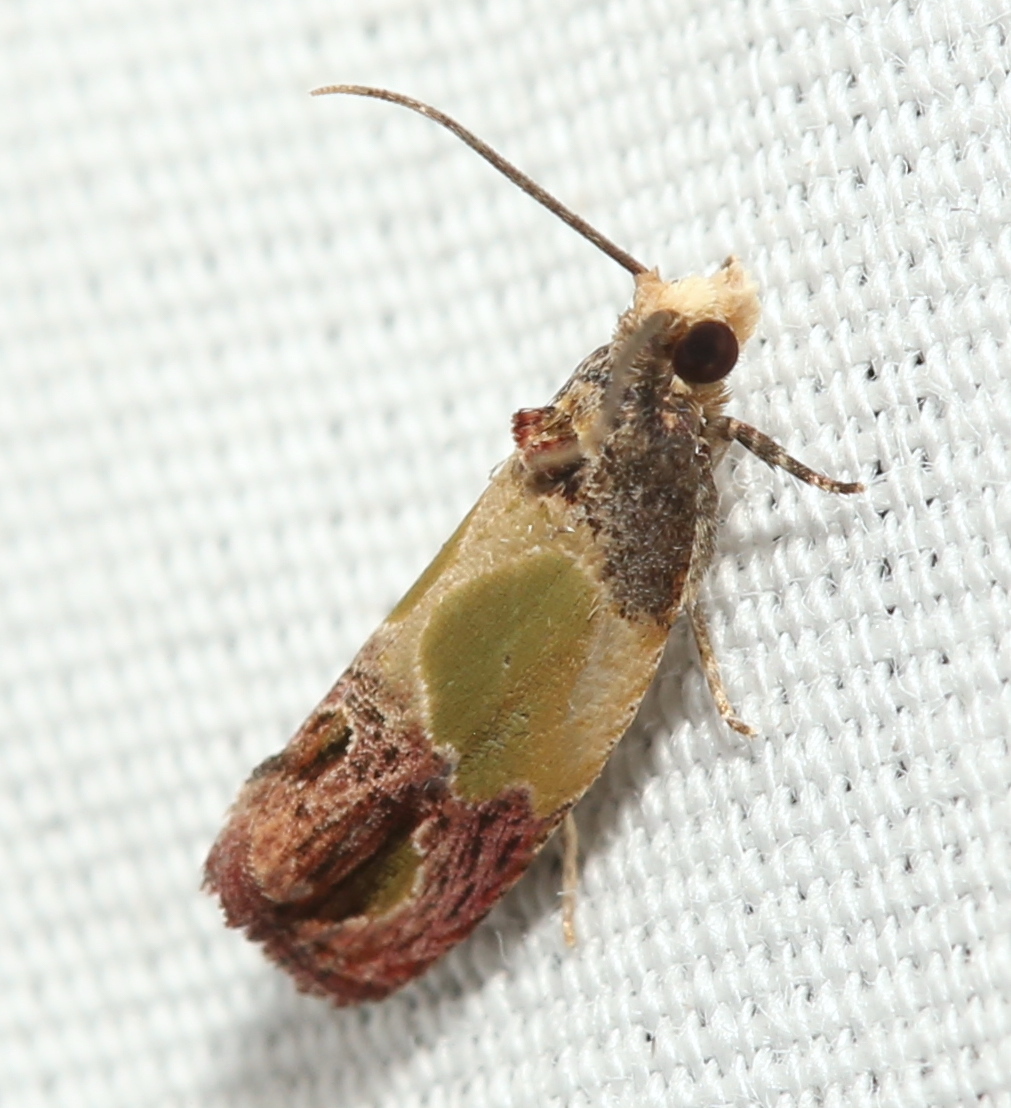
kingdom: Animalia
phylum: Arthropoda
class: Insecta
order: Lepidoptera
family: Tortricidae
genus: Eumarozia
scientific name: Eumarozia malachitana
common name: Sculptured moth
